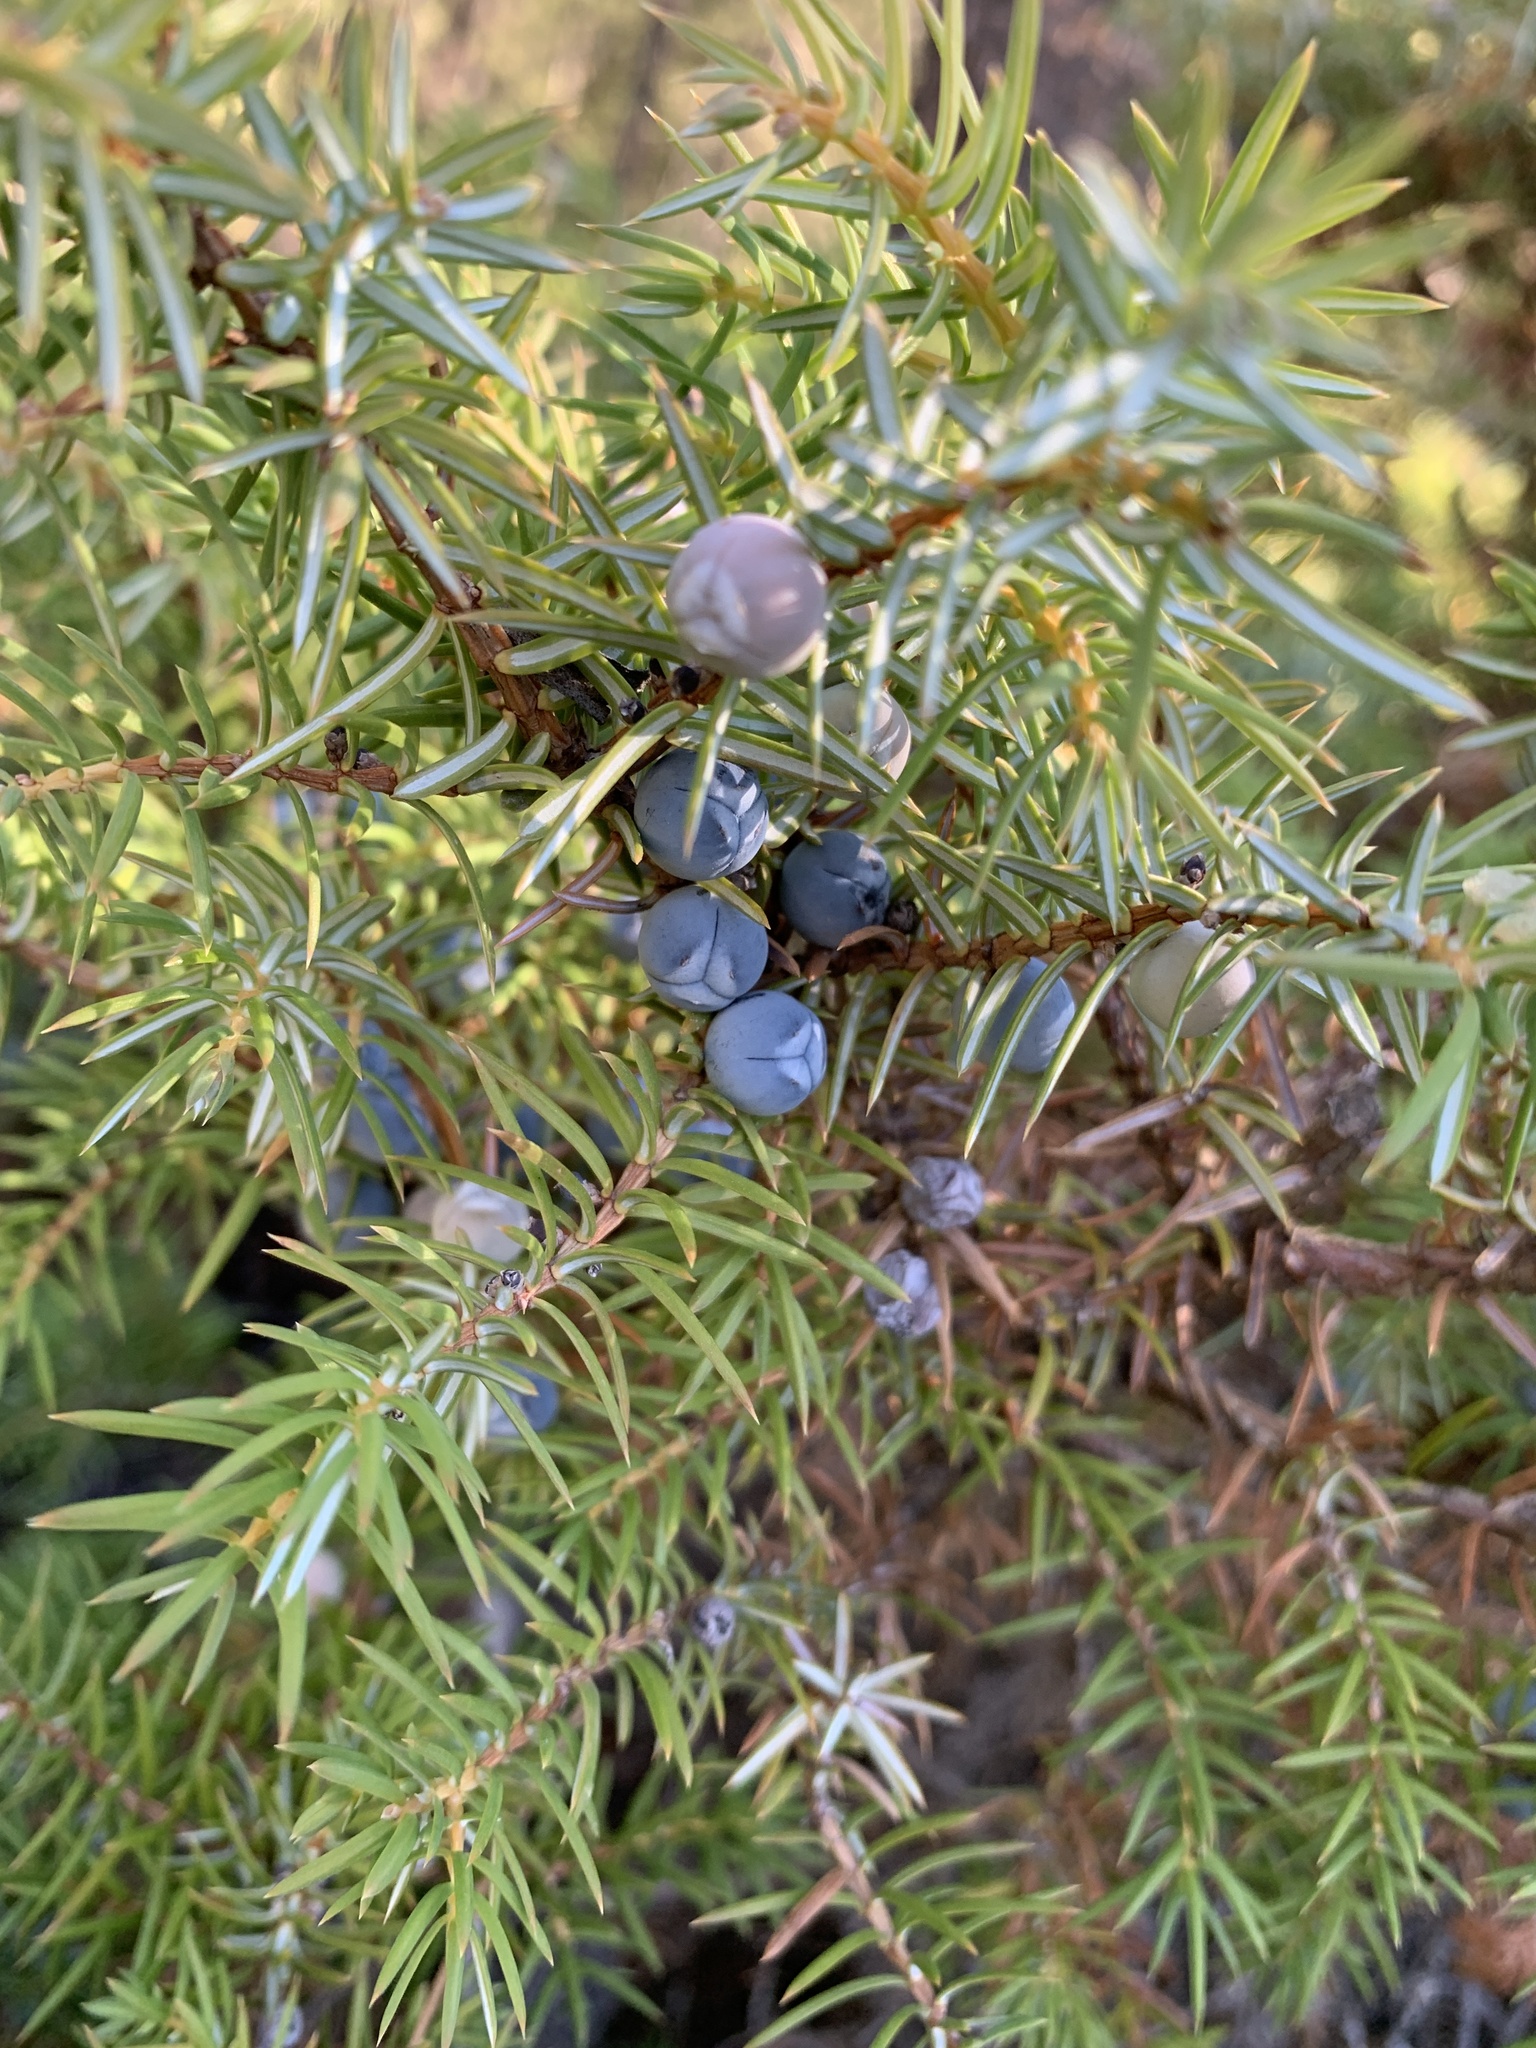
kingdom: Plantae
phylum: Tracheophyta
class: Pinopsida
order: Pinales
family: Cupressaceae
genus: Juniperus
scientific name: Juniperus communis
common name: Common juniper
